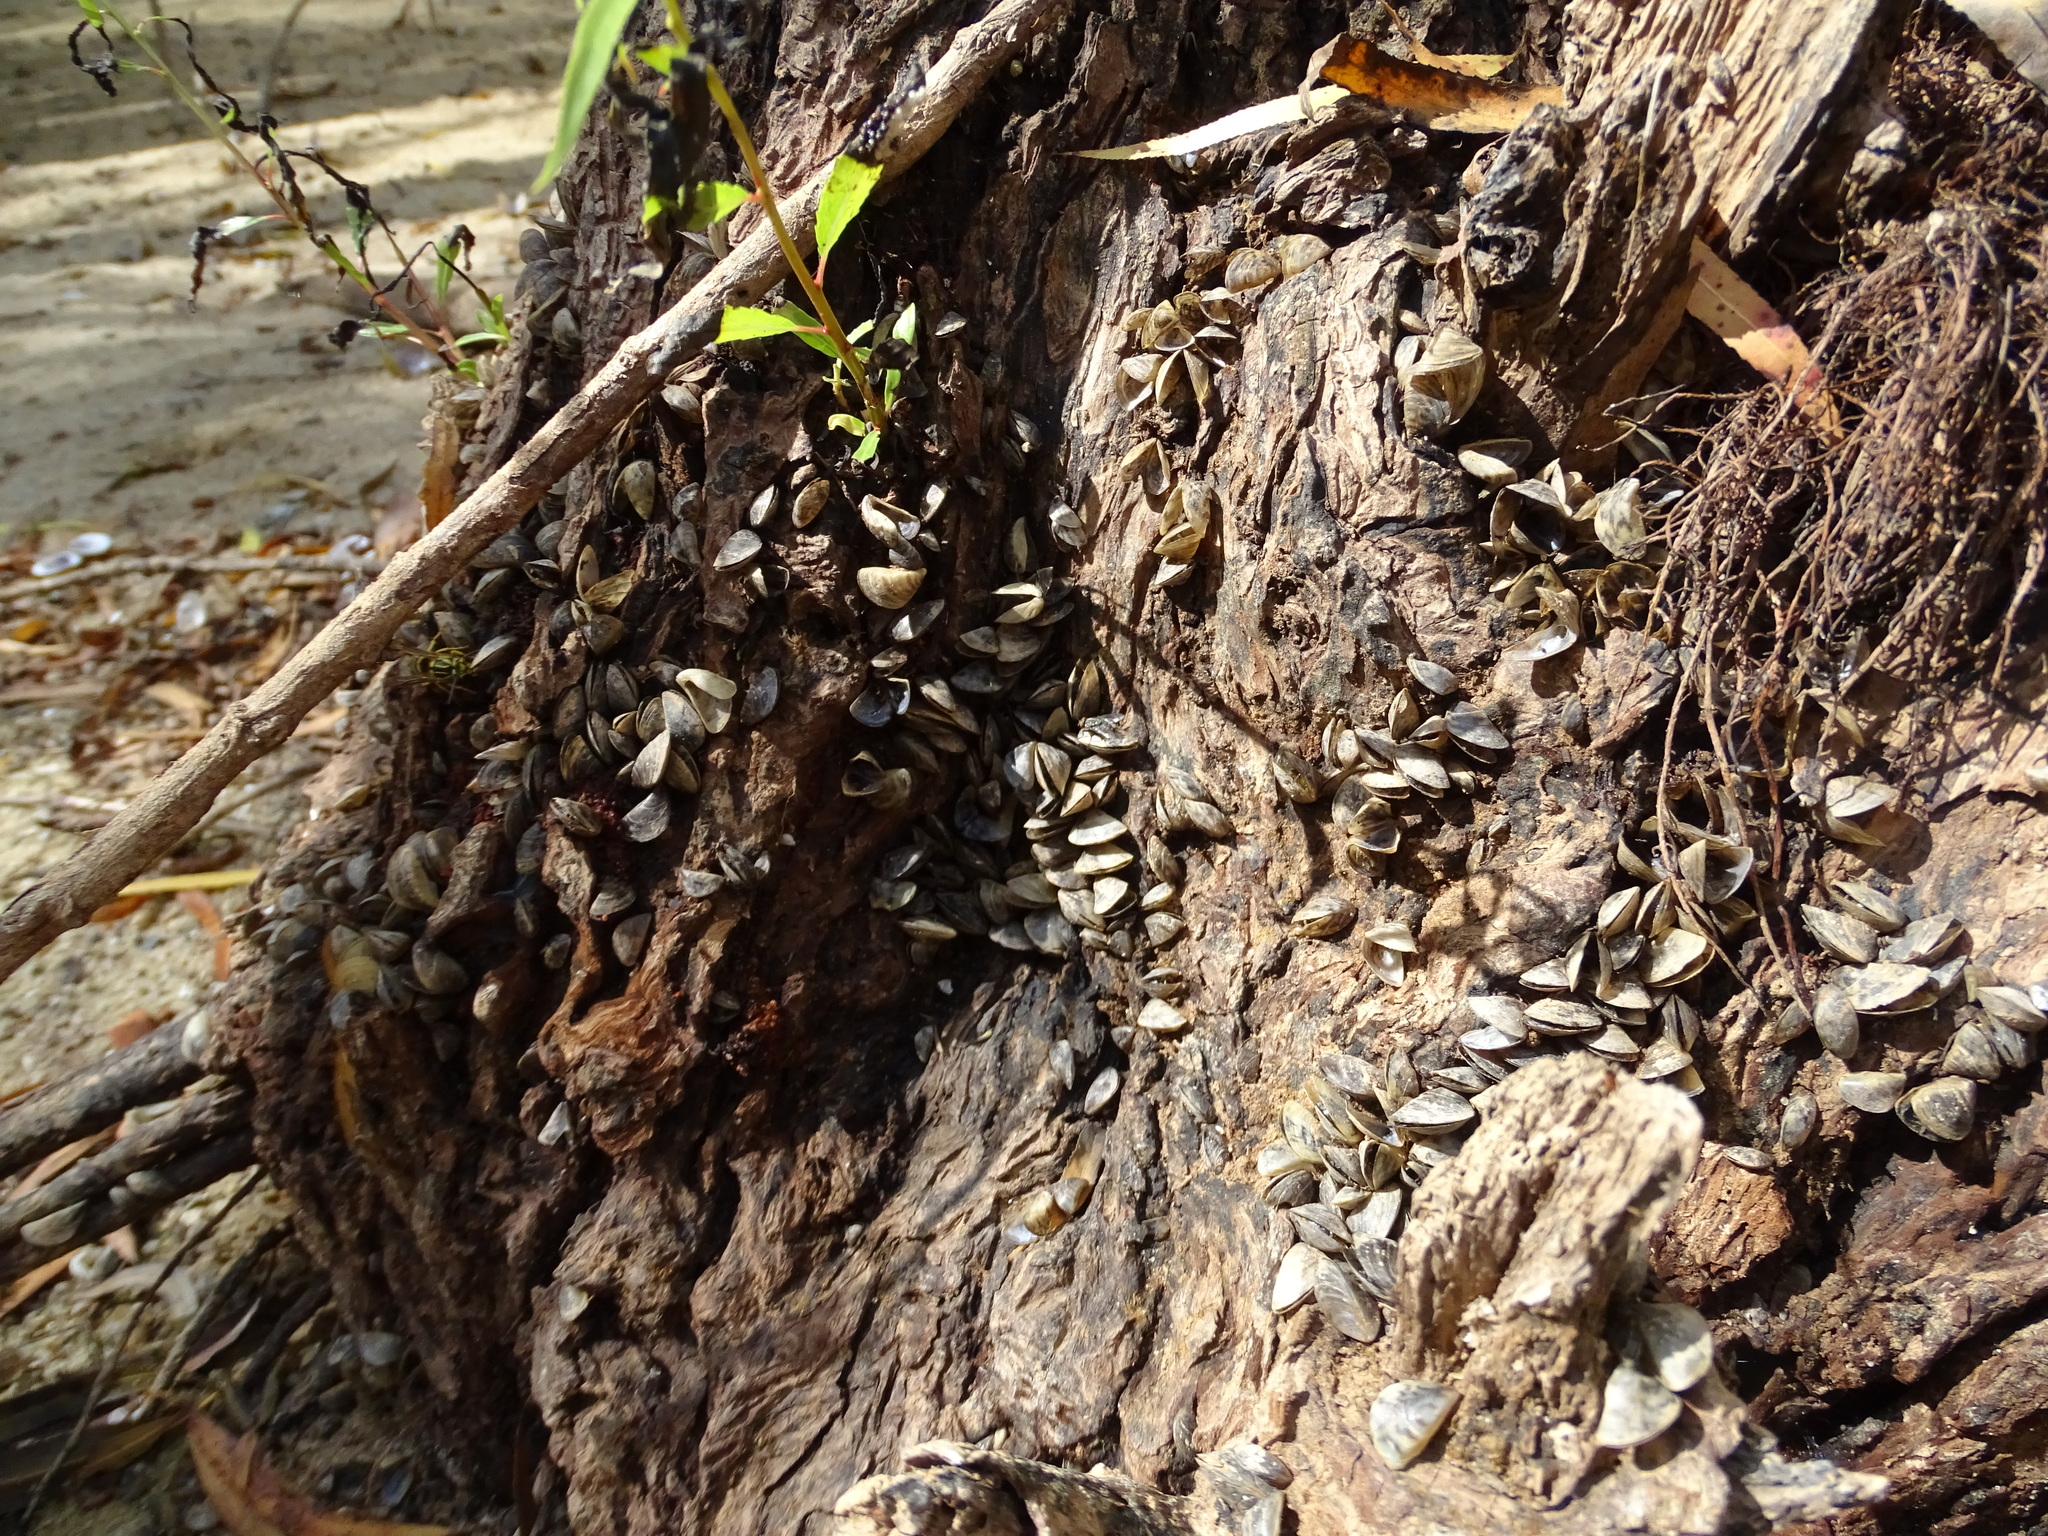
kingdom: Animalia
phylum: Mollusca
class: Bivalvia
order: Myida
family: Dreissenidae
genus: Dreissena
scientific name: Dreissena polymorpha
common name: Zebra mussel
